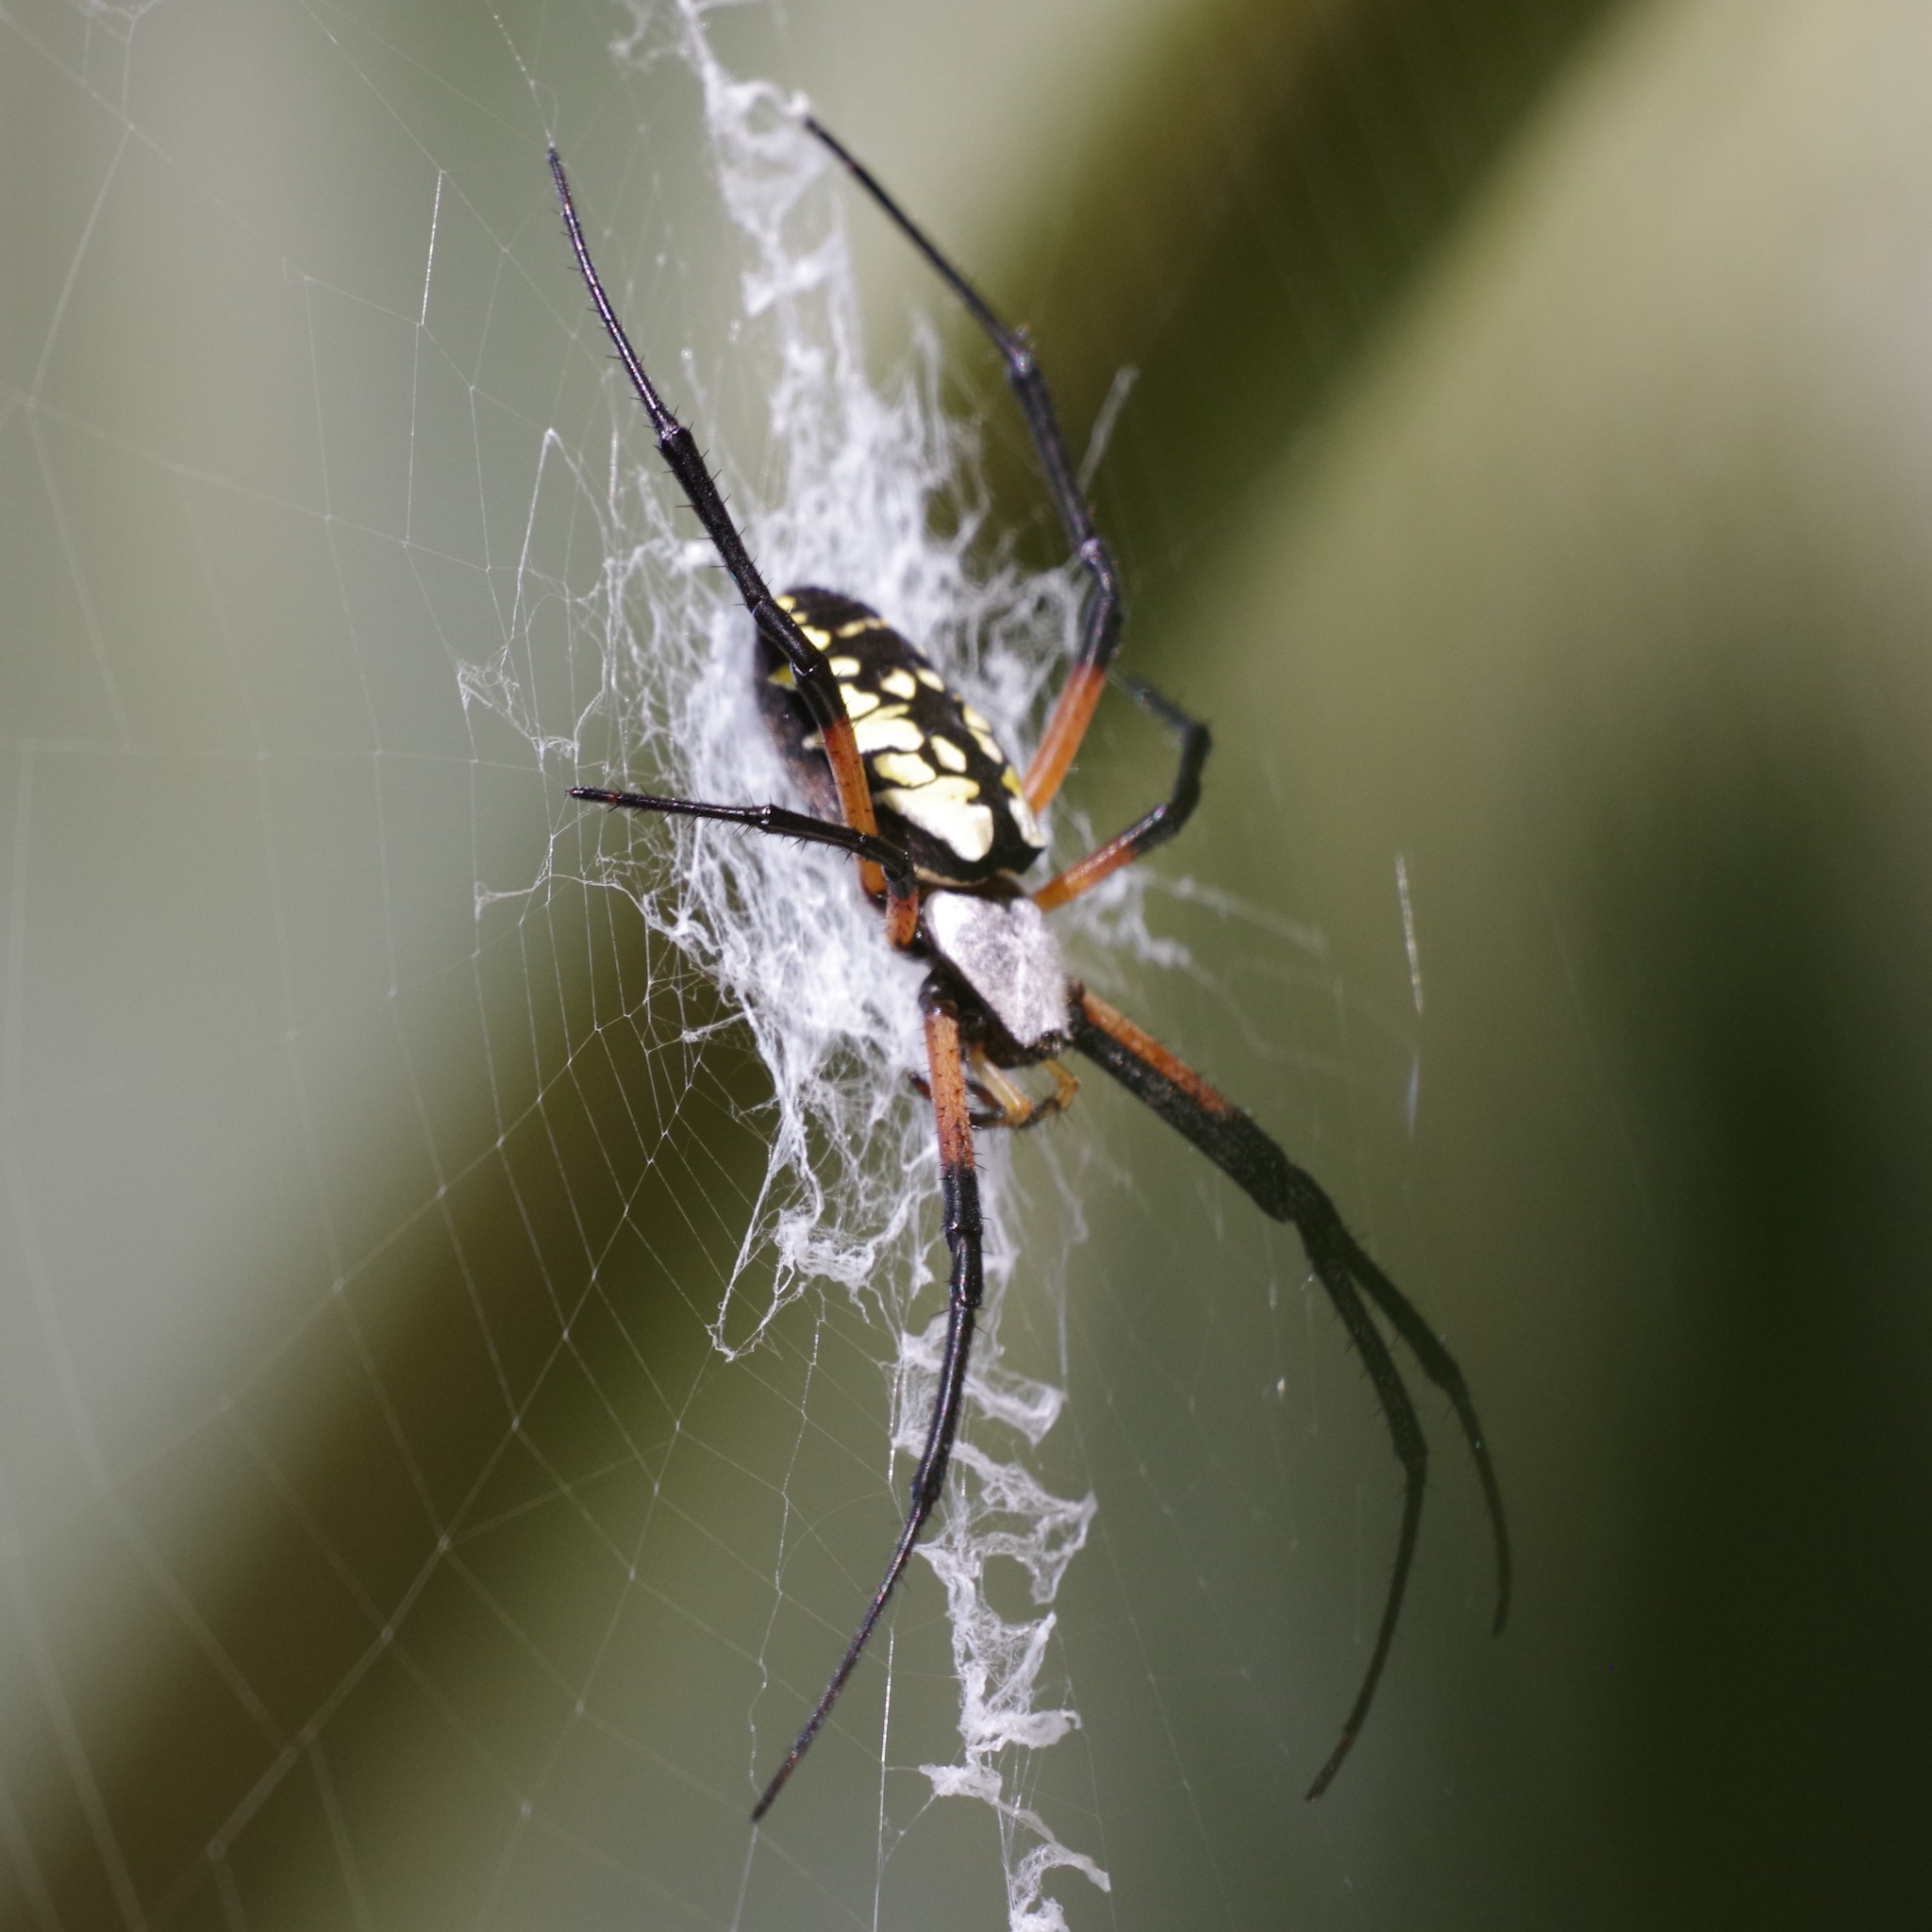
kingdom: Animalia
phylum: Arthropoda
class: Arachnida
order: Araneae
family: Araneidae
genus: Argiope
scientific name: Argiope aurantia
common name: Orb weavers
